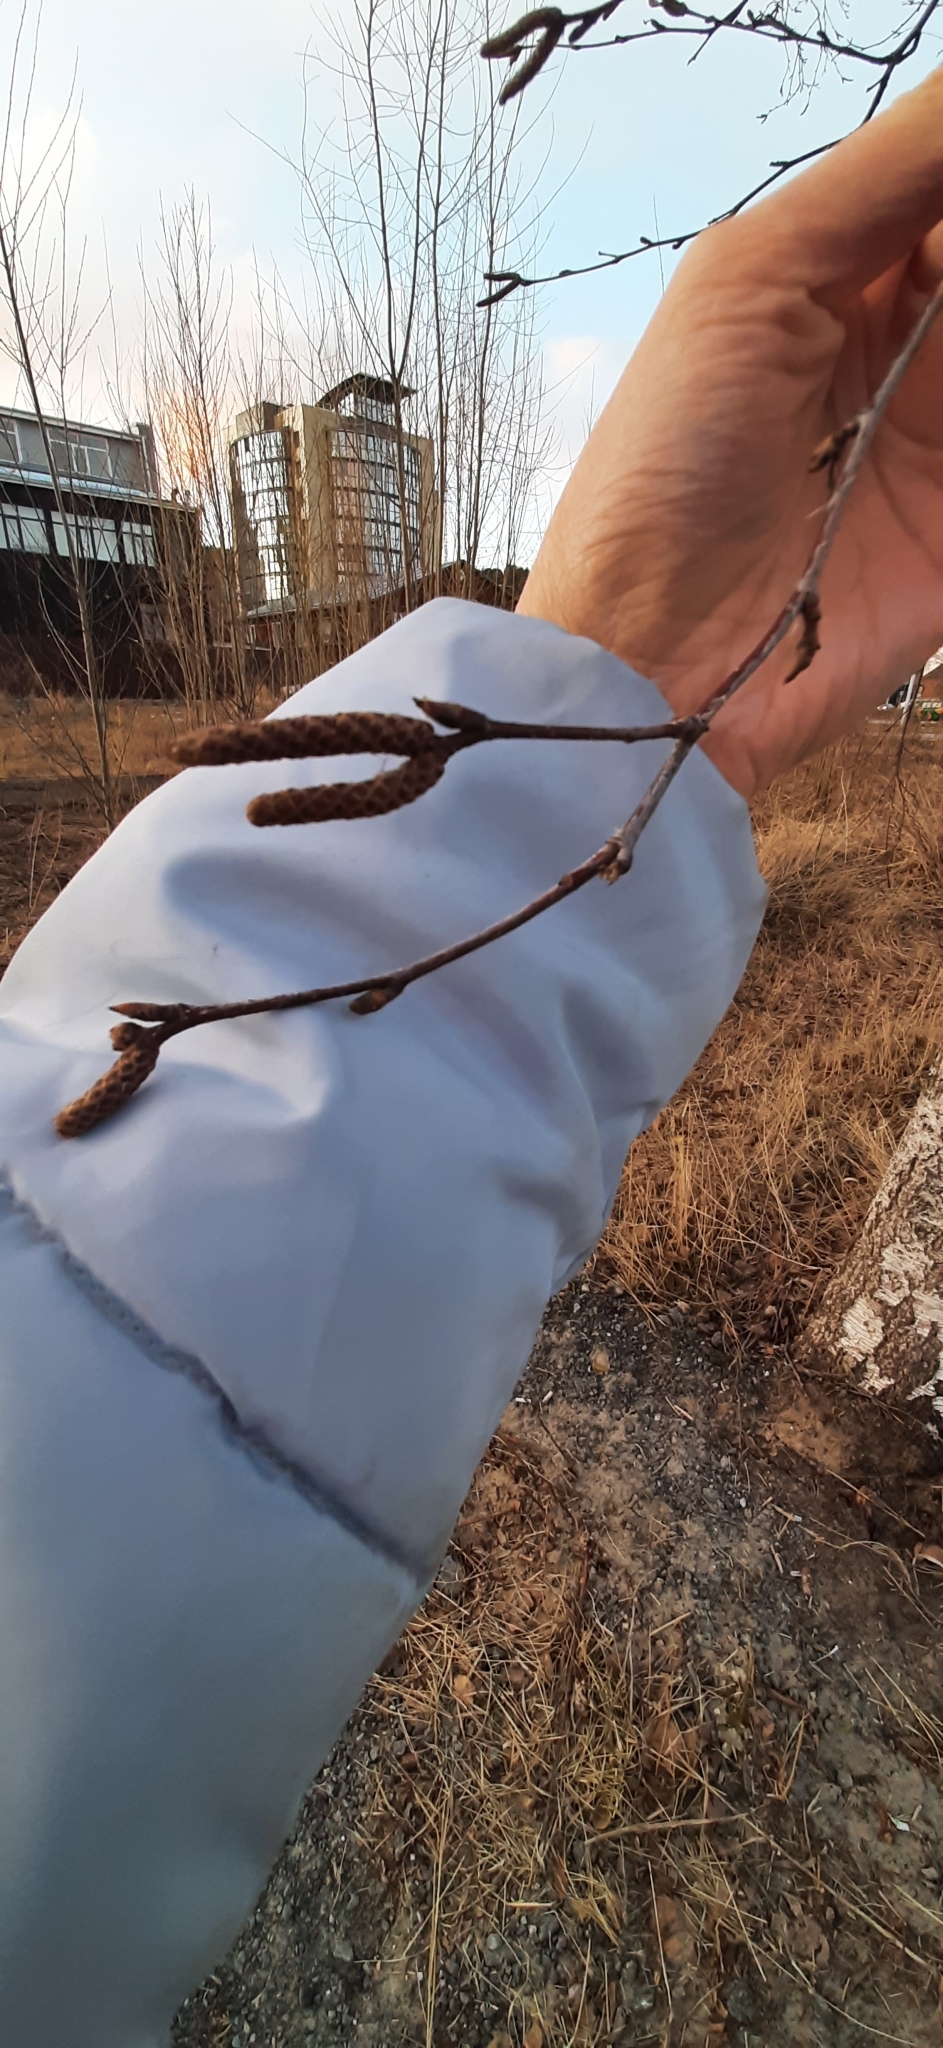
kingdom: Plantae
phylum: Tracheophyta
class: Magnoliopsida
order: Fagales
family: Betulaceae
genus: Betula
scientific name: Betula pendula
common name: Silver birch
